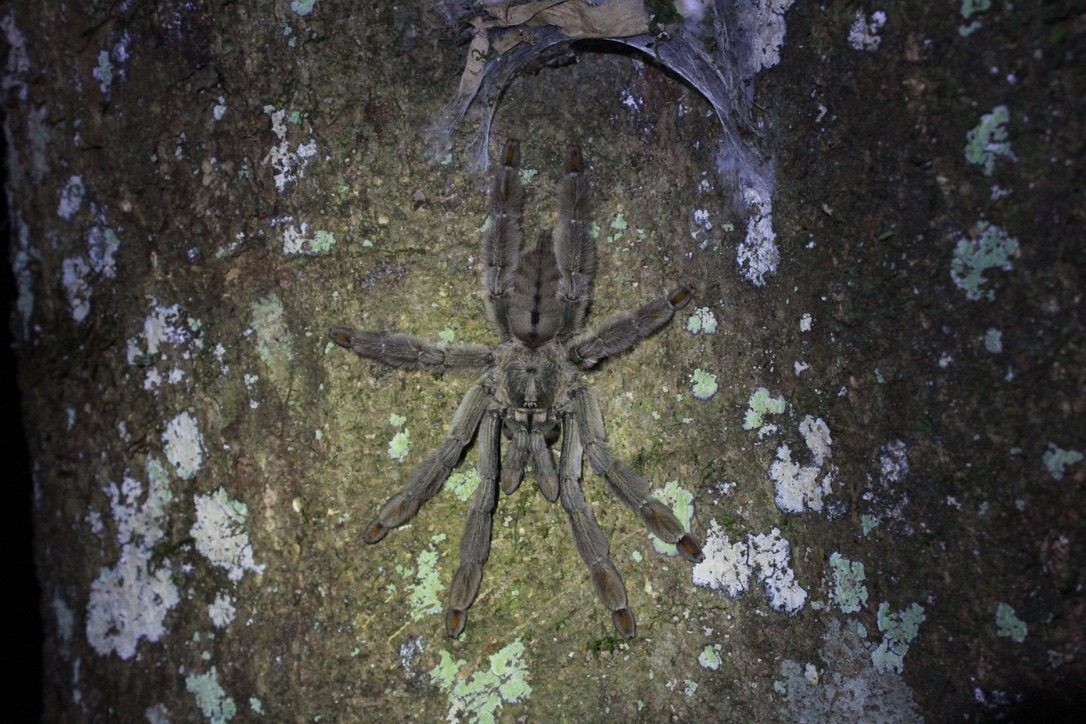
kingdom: Animalia
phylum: Arthropoda
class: Arachnida
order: Araneae
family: Theraphosidae
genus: Psalmopoeus
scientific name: Psalmopoeus cambridgei
